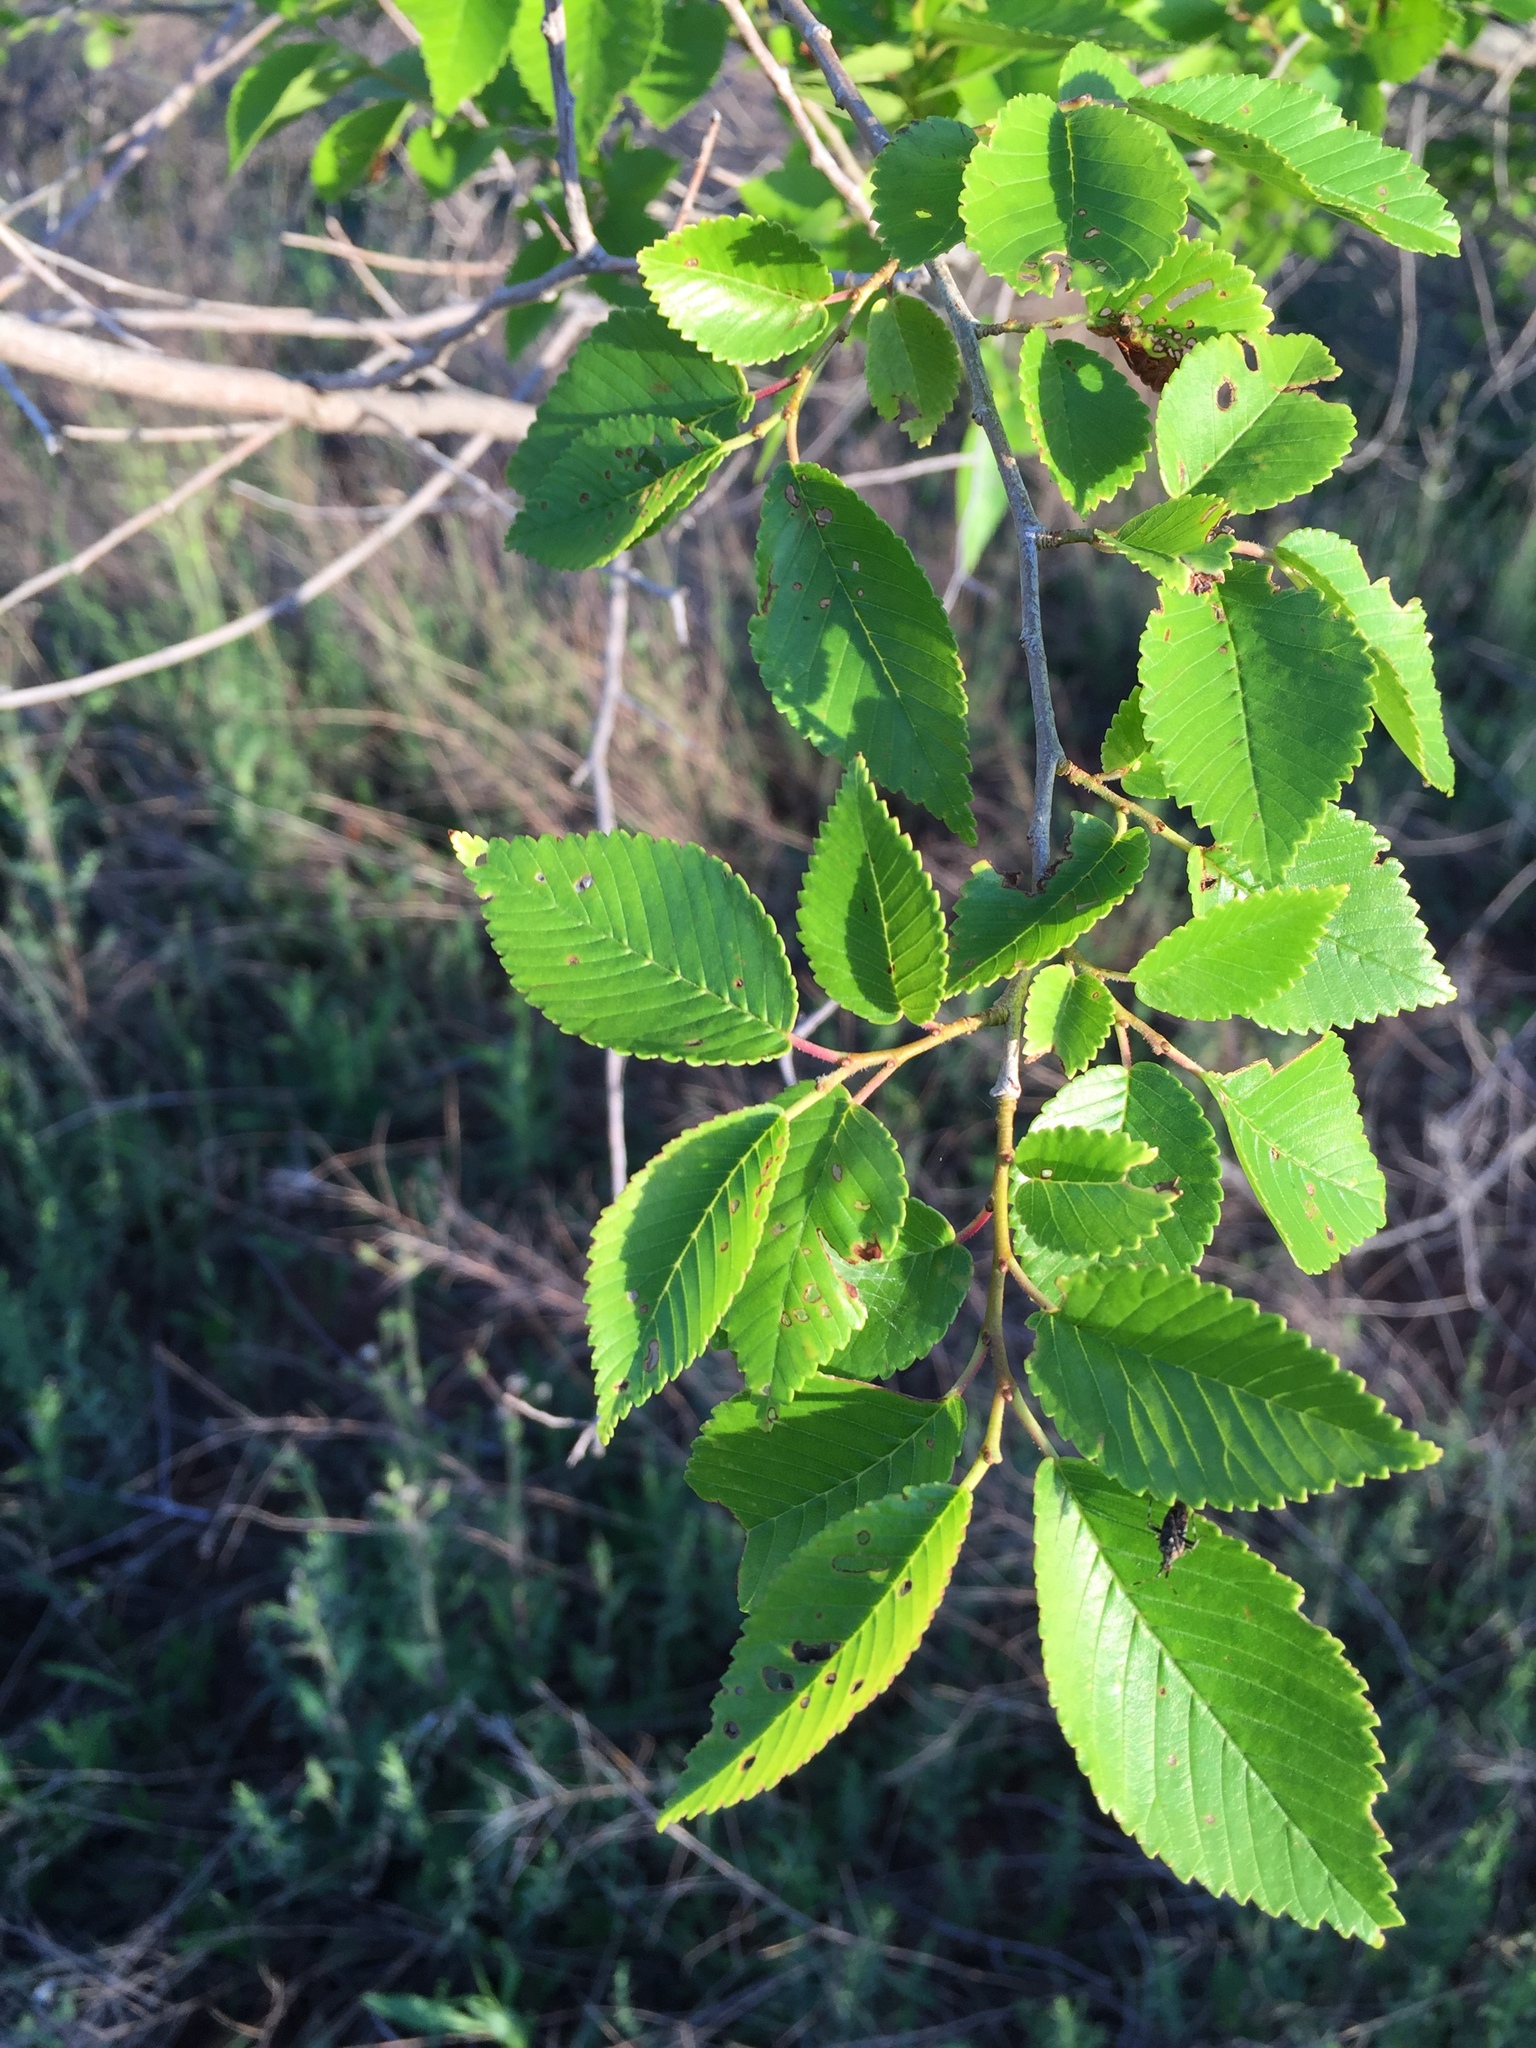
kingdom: Plantae
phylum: Tracheophyta
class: Magnoliopsida
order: Rosales
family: Ulmaceae
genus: Ulmus
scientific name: Ulmus pumila
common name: Siberian elm
